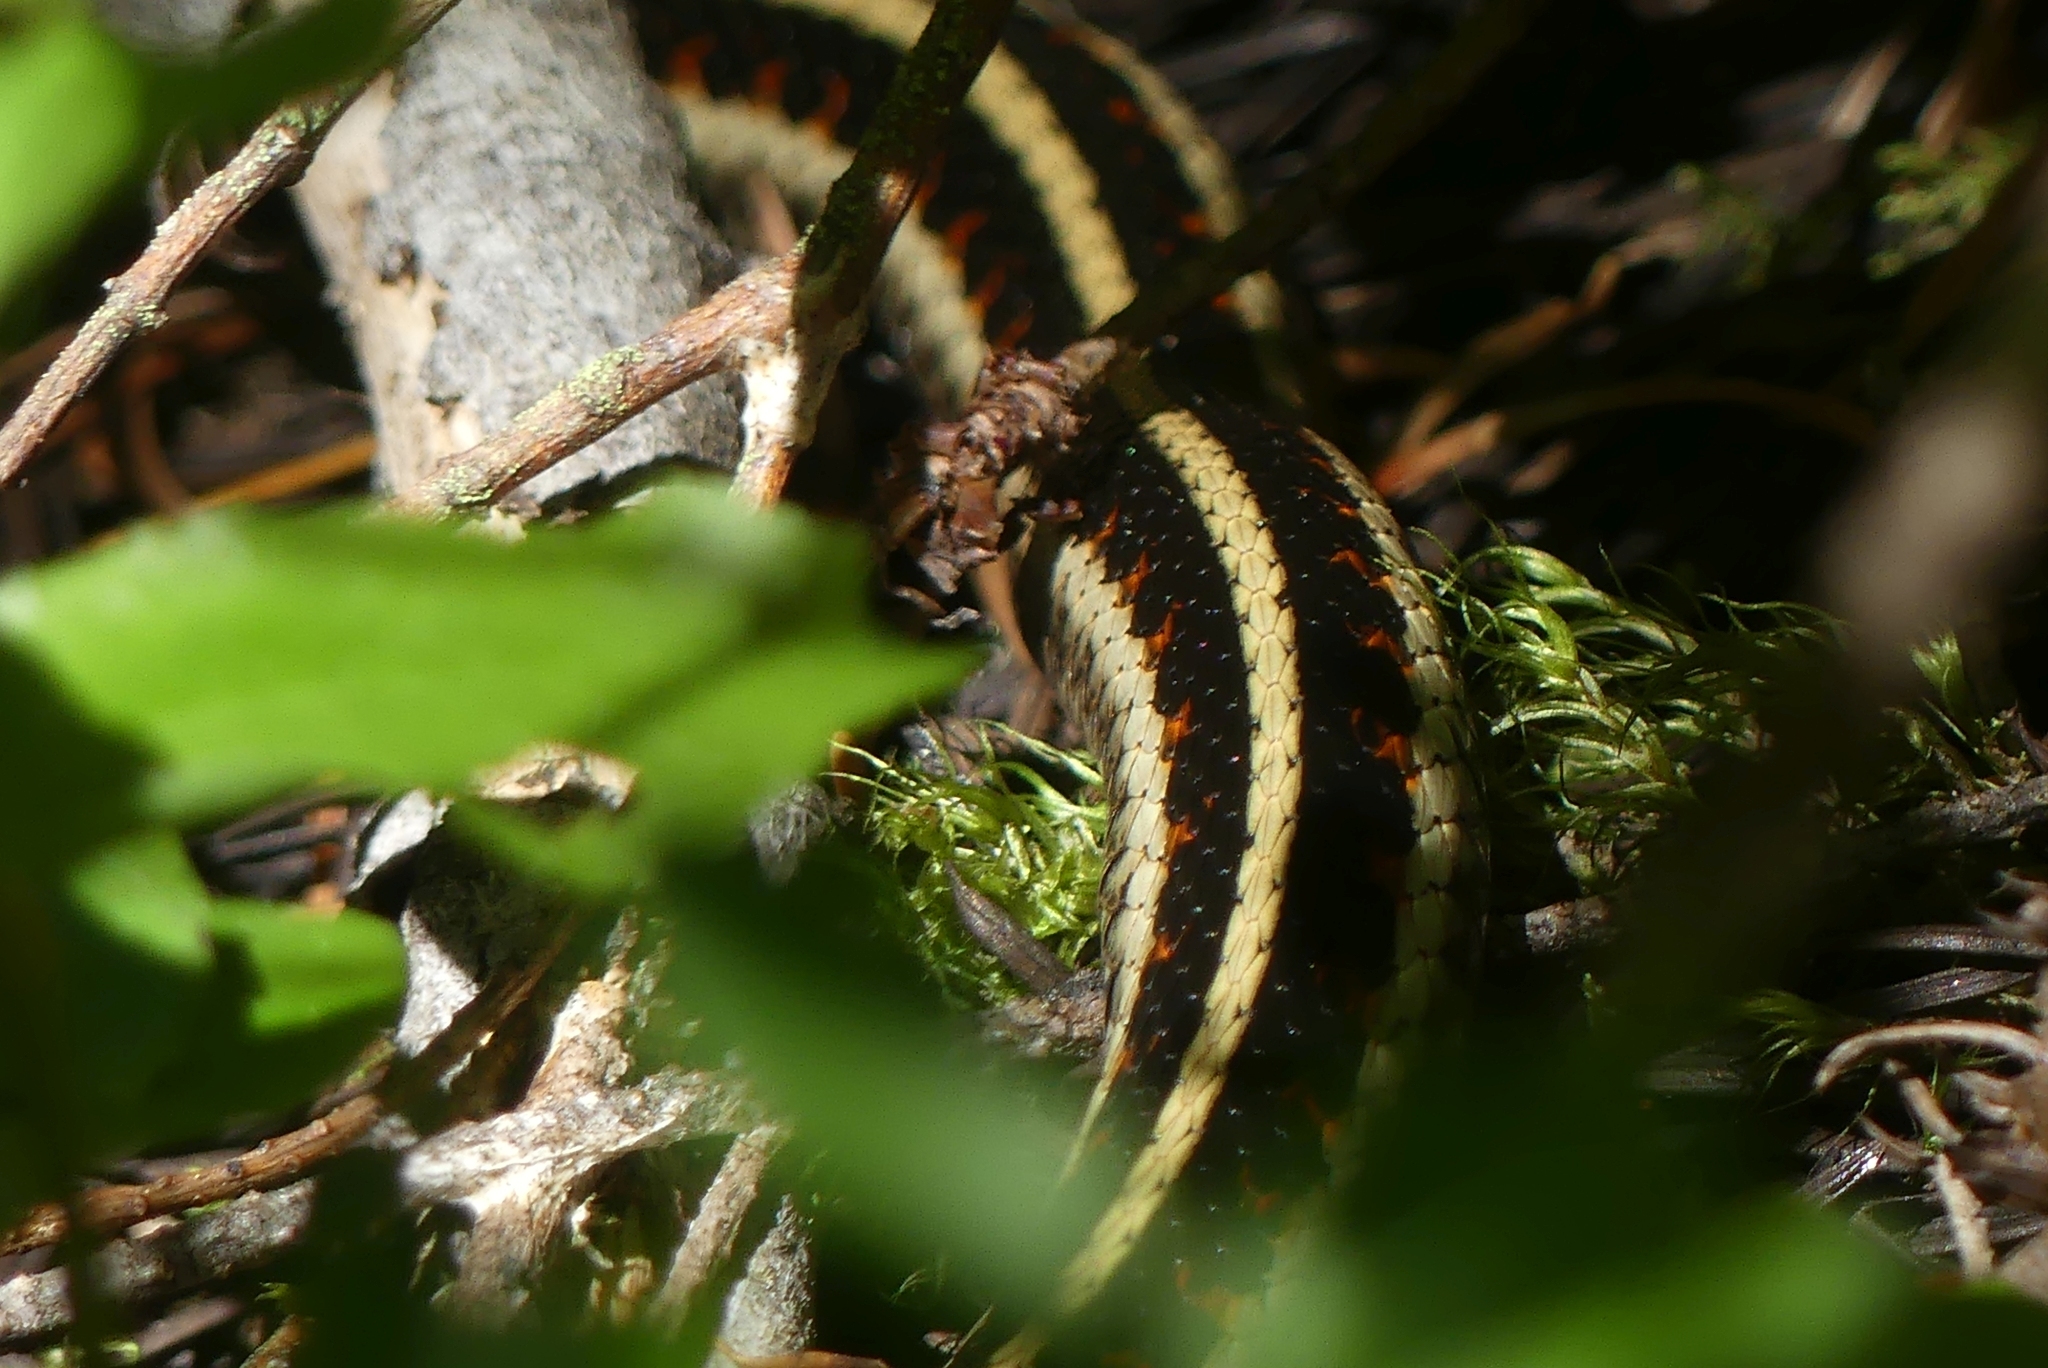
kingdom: Animalia
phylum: Chordata
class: Squamata
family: Colubridae
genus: Thamnophis
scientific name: Thamnophis sirtalis
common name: Common garter snake
